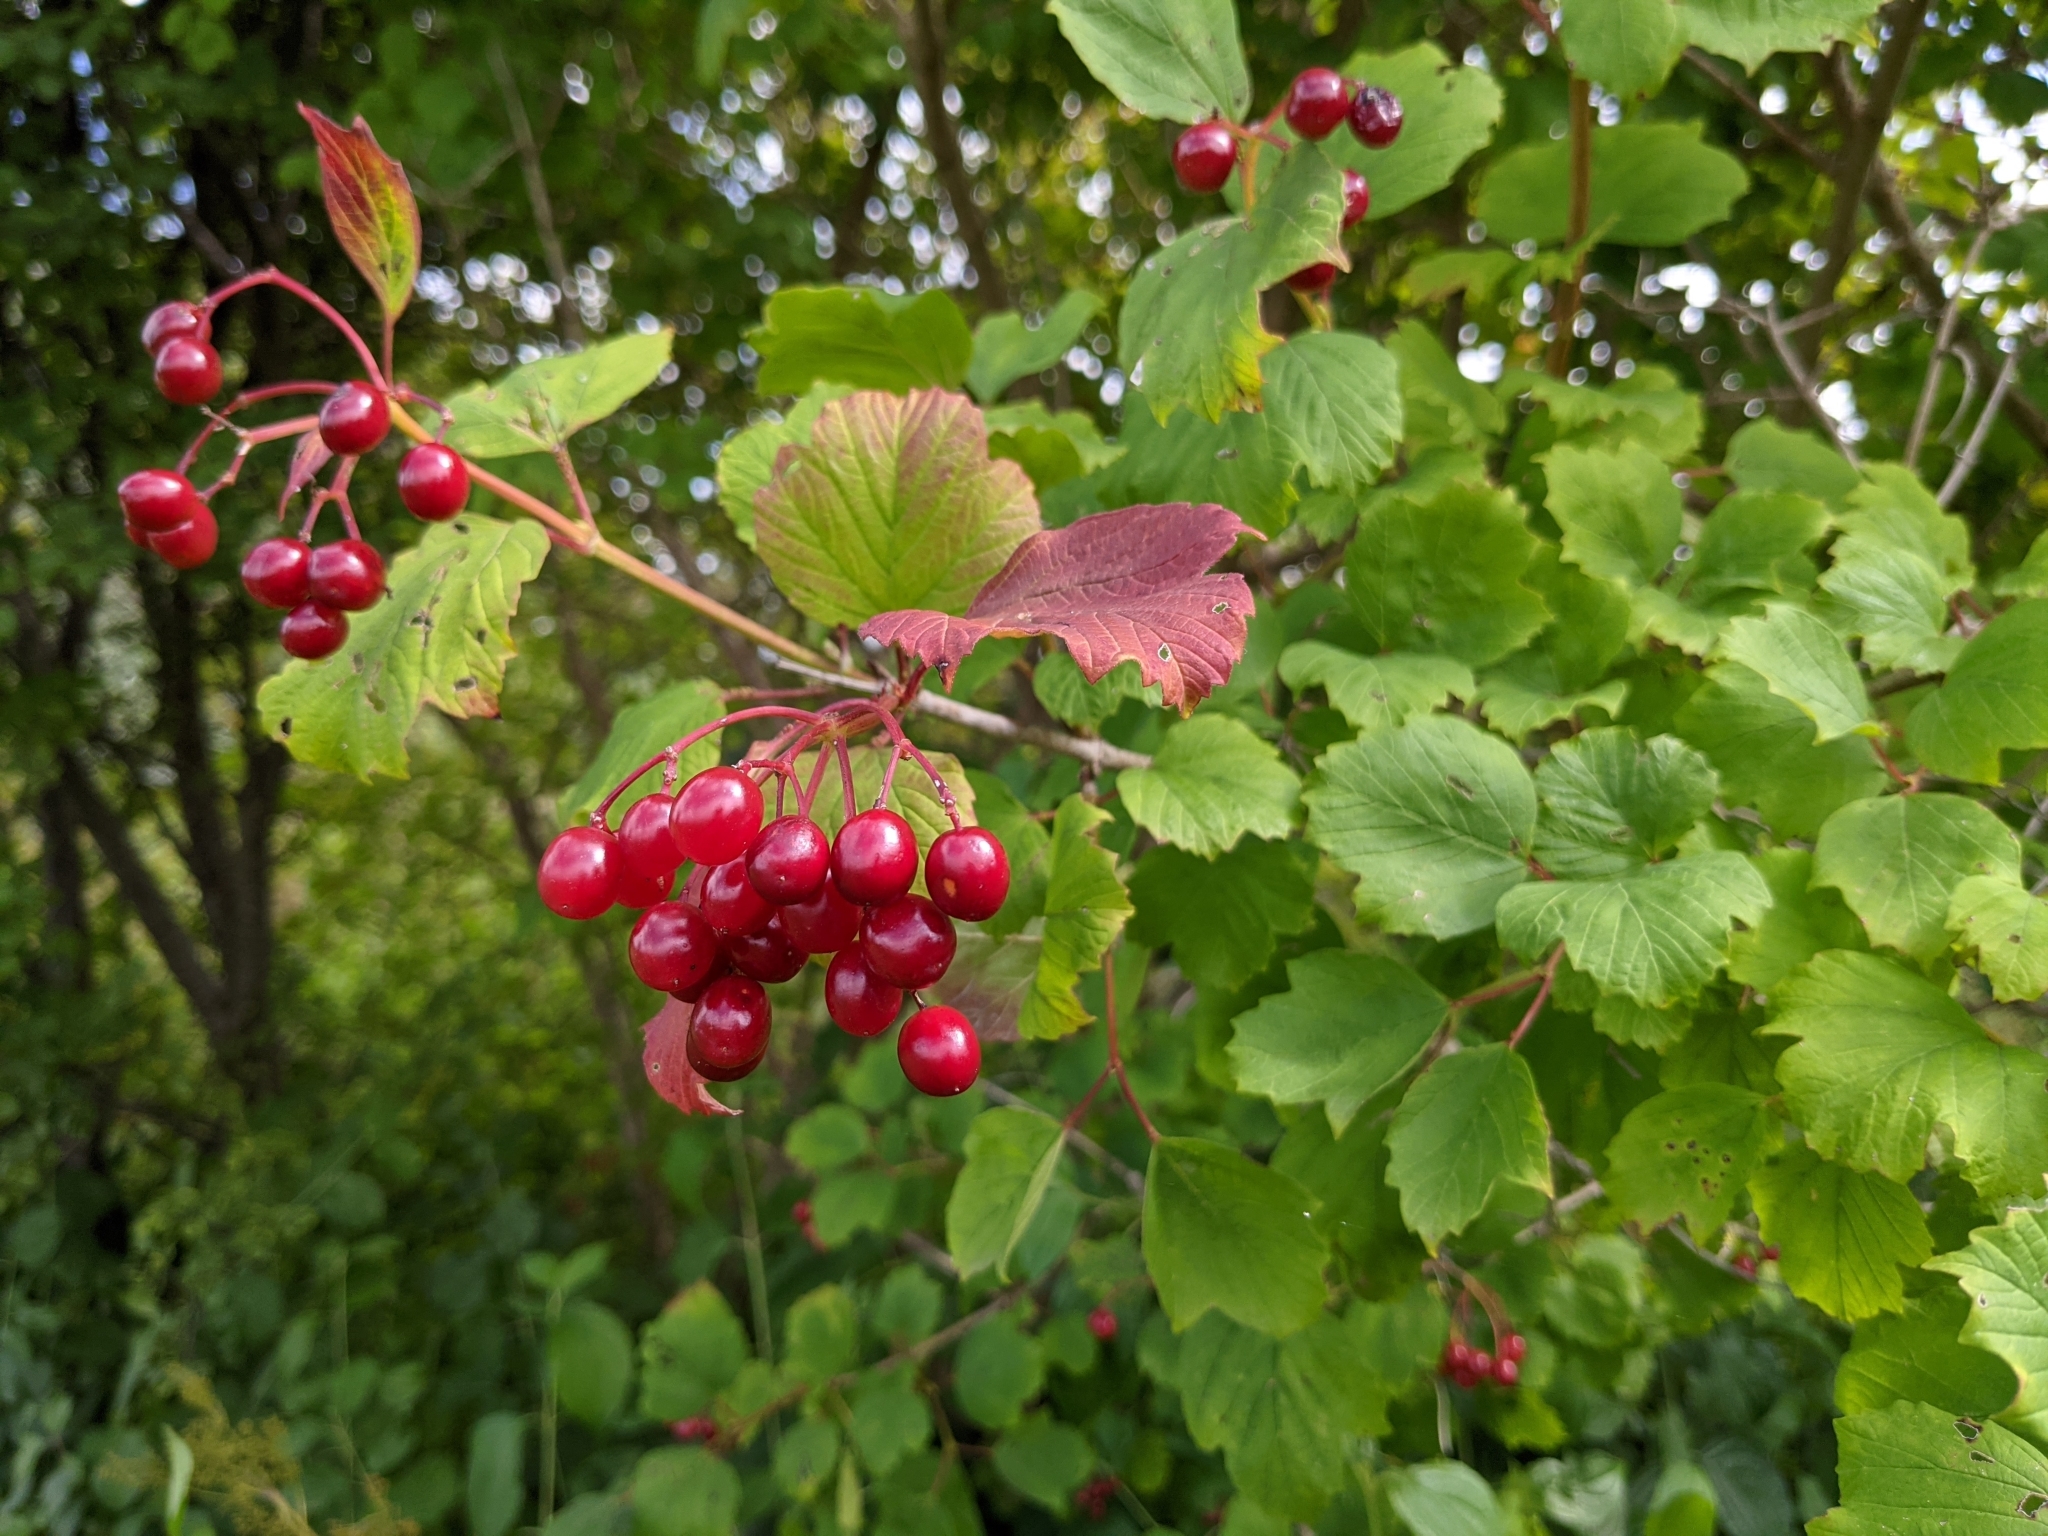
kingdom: Plantae
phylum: Tracheophyta
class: Magnoliopsida
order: Dipsacales
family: Viburnaceae
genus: Viburnum
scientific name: Viburnum opulus
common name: Guelder-rose
